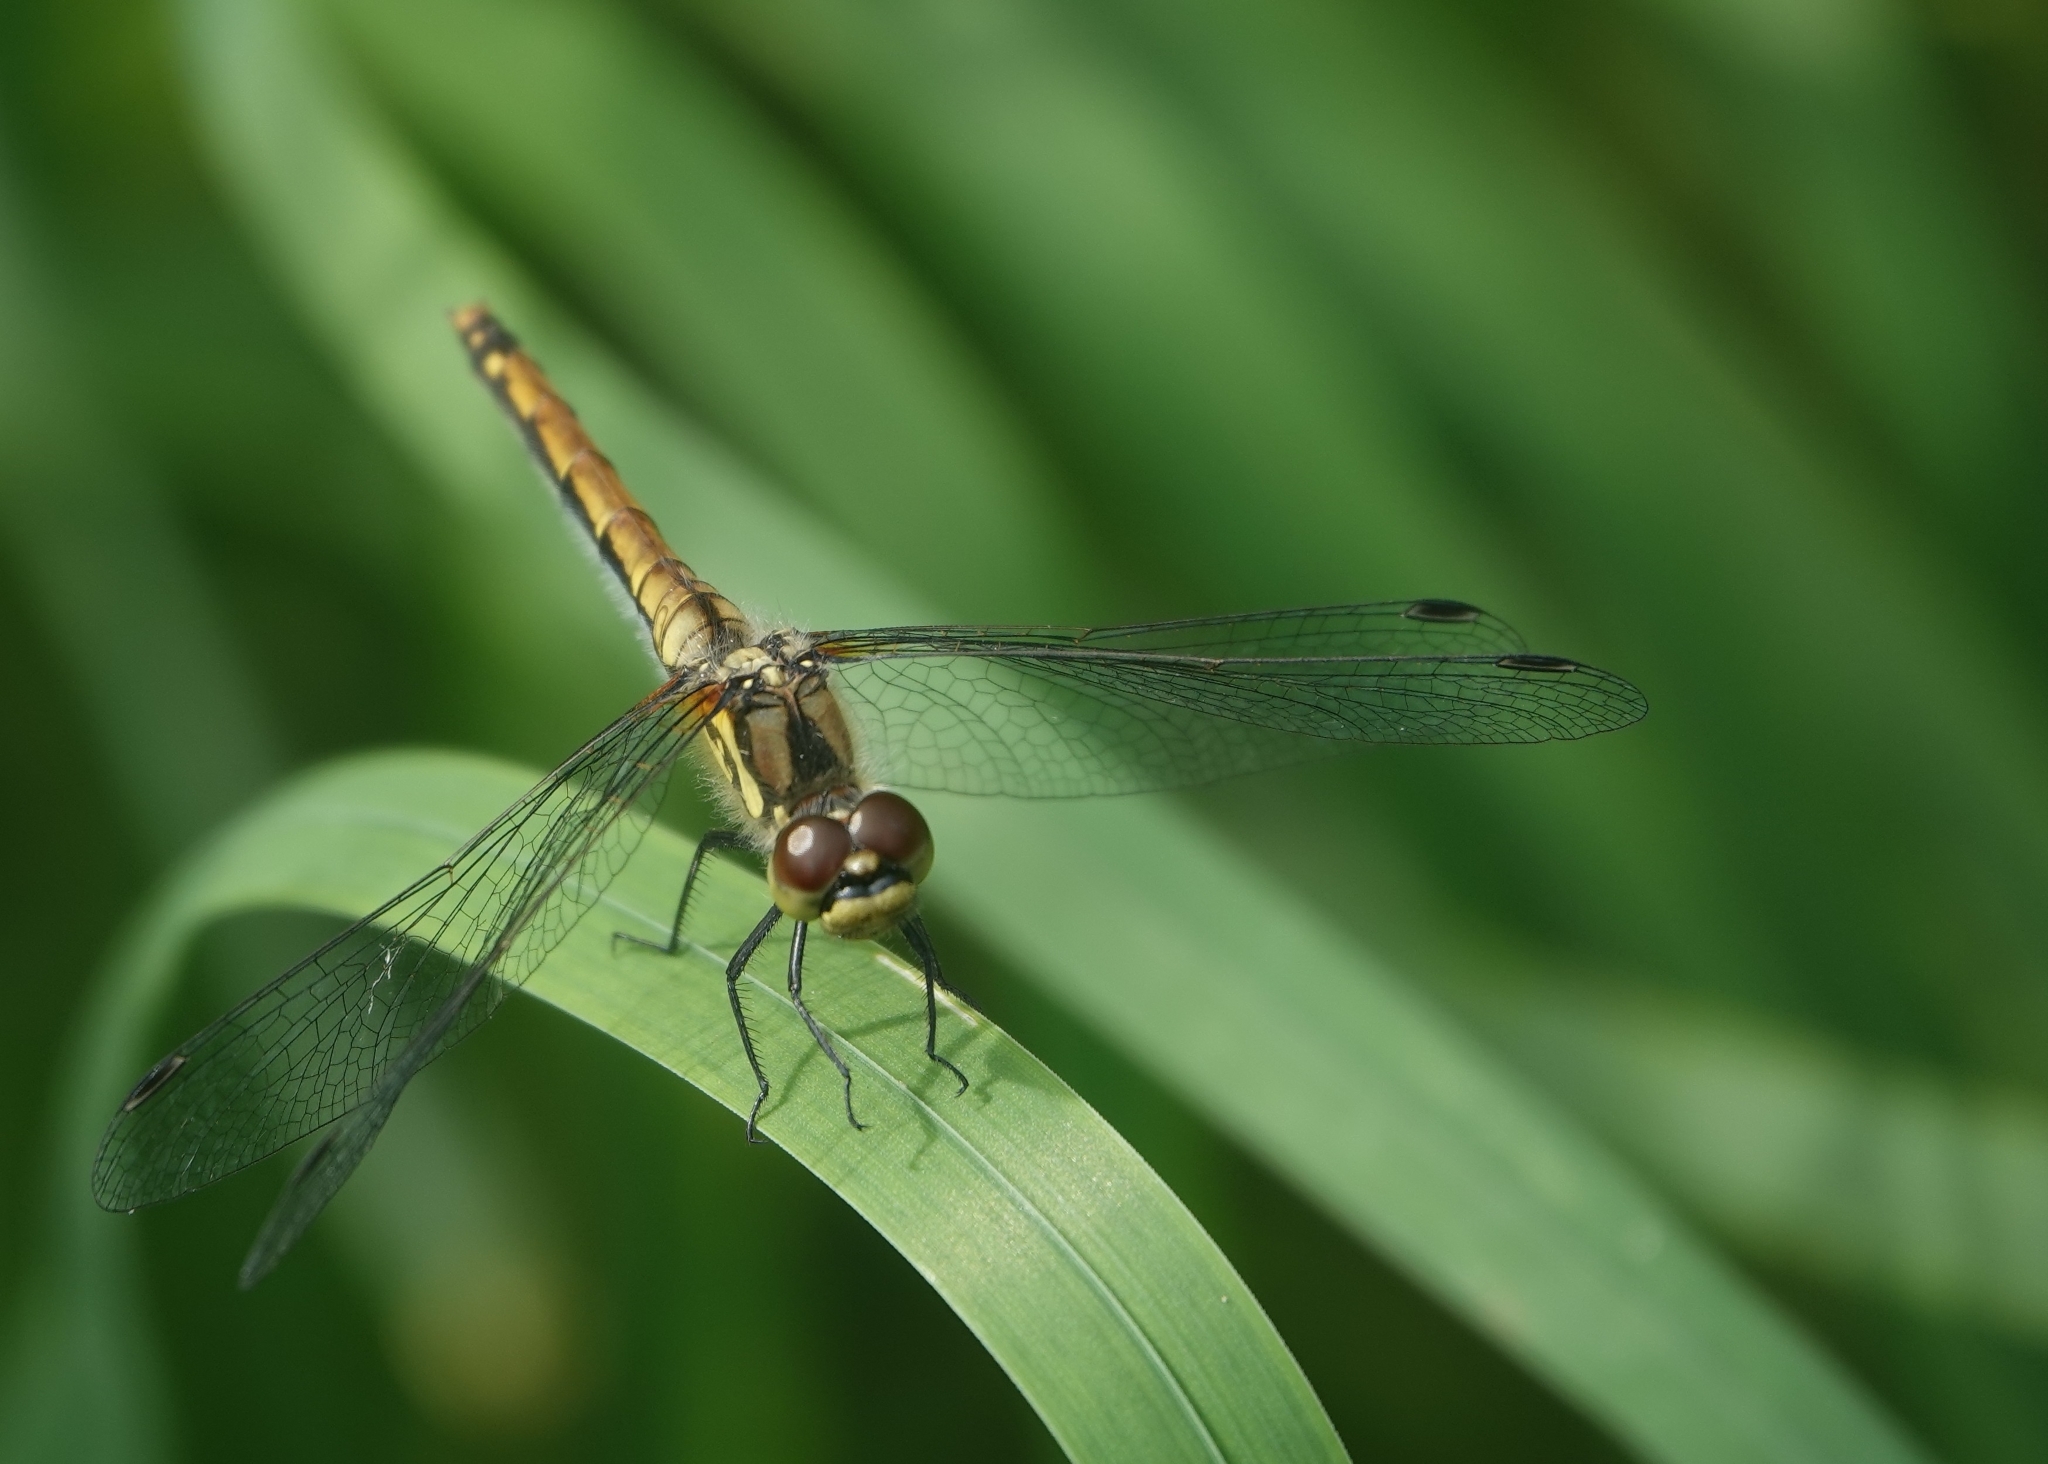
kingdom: Animalia
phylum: Arthropoda
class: Insecta
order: Odonata
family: Libellulidae
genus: Sympetrum
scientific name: Sympetrum danae
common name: Black darter
